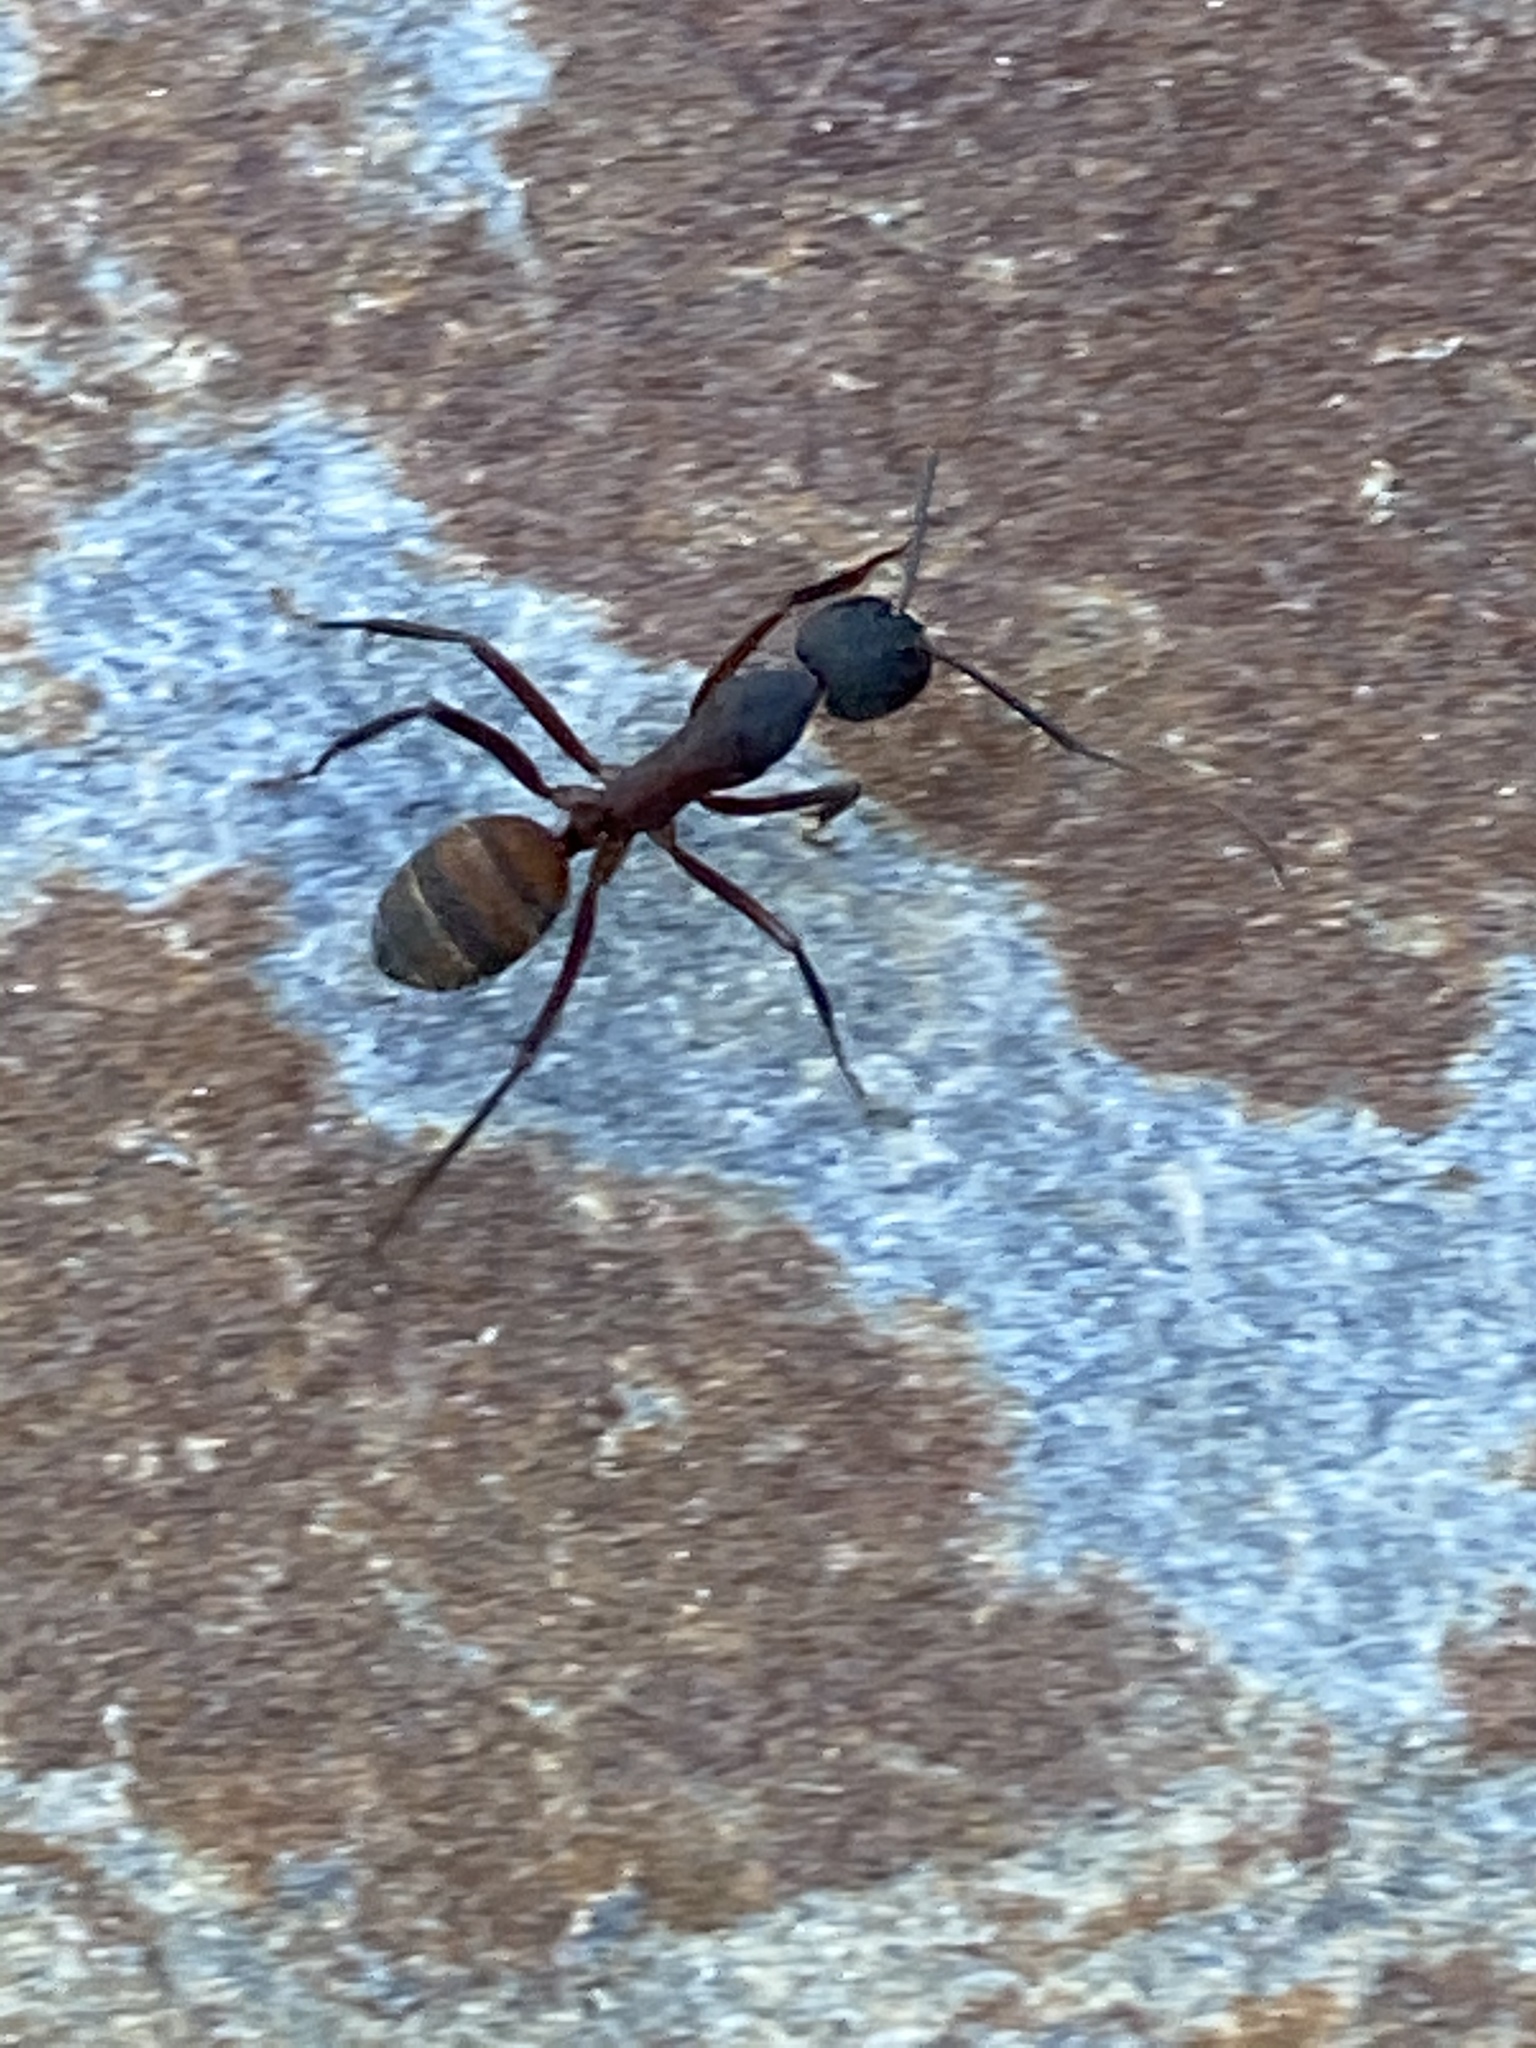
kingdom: Animalia
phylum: Arthropoda
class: Insecta
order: Hymenoptera
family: Formicidae
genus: Camponotus
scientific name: Camponotus cruentatus
